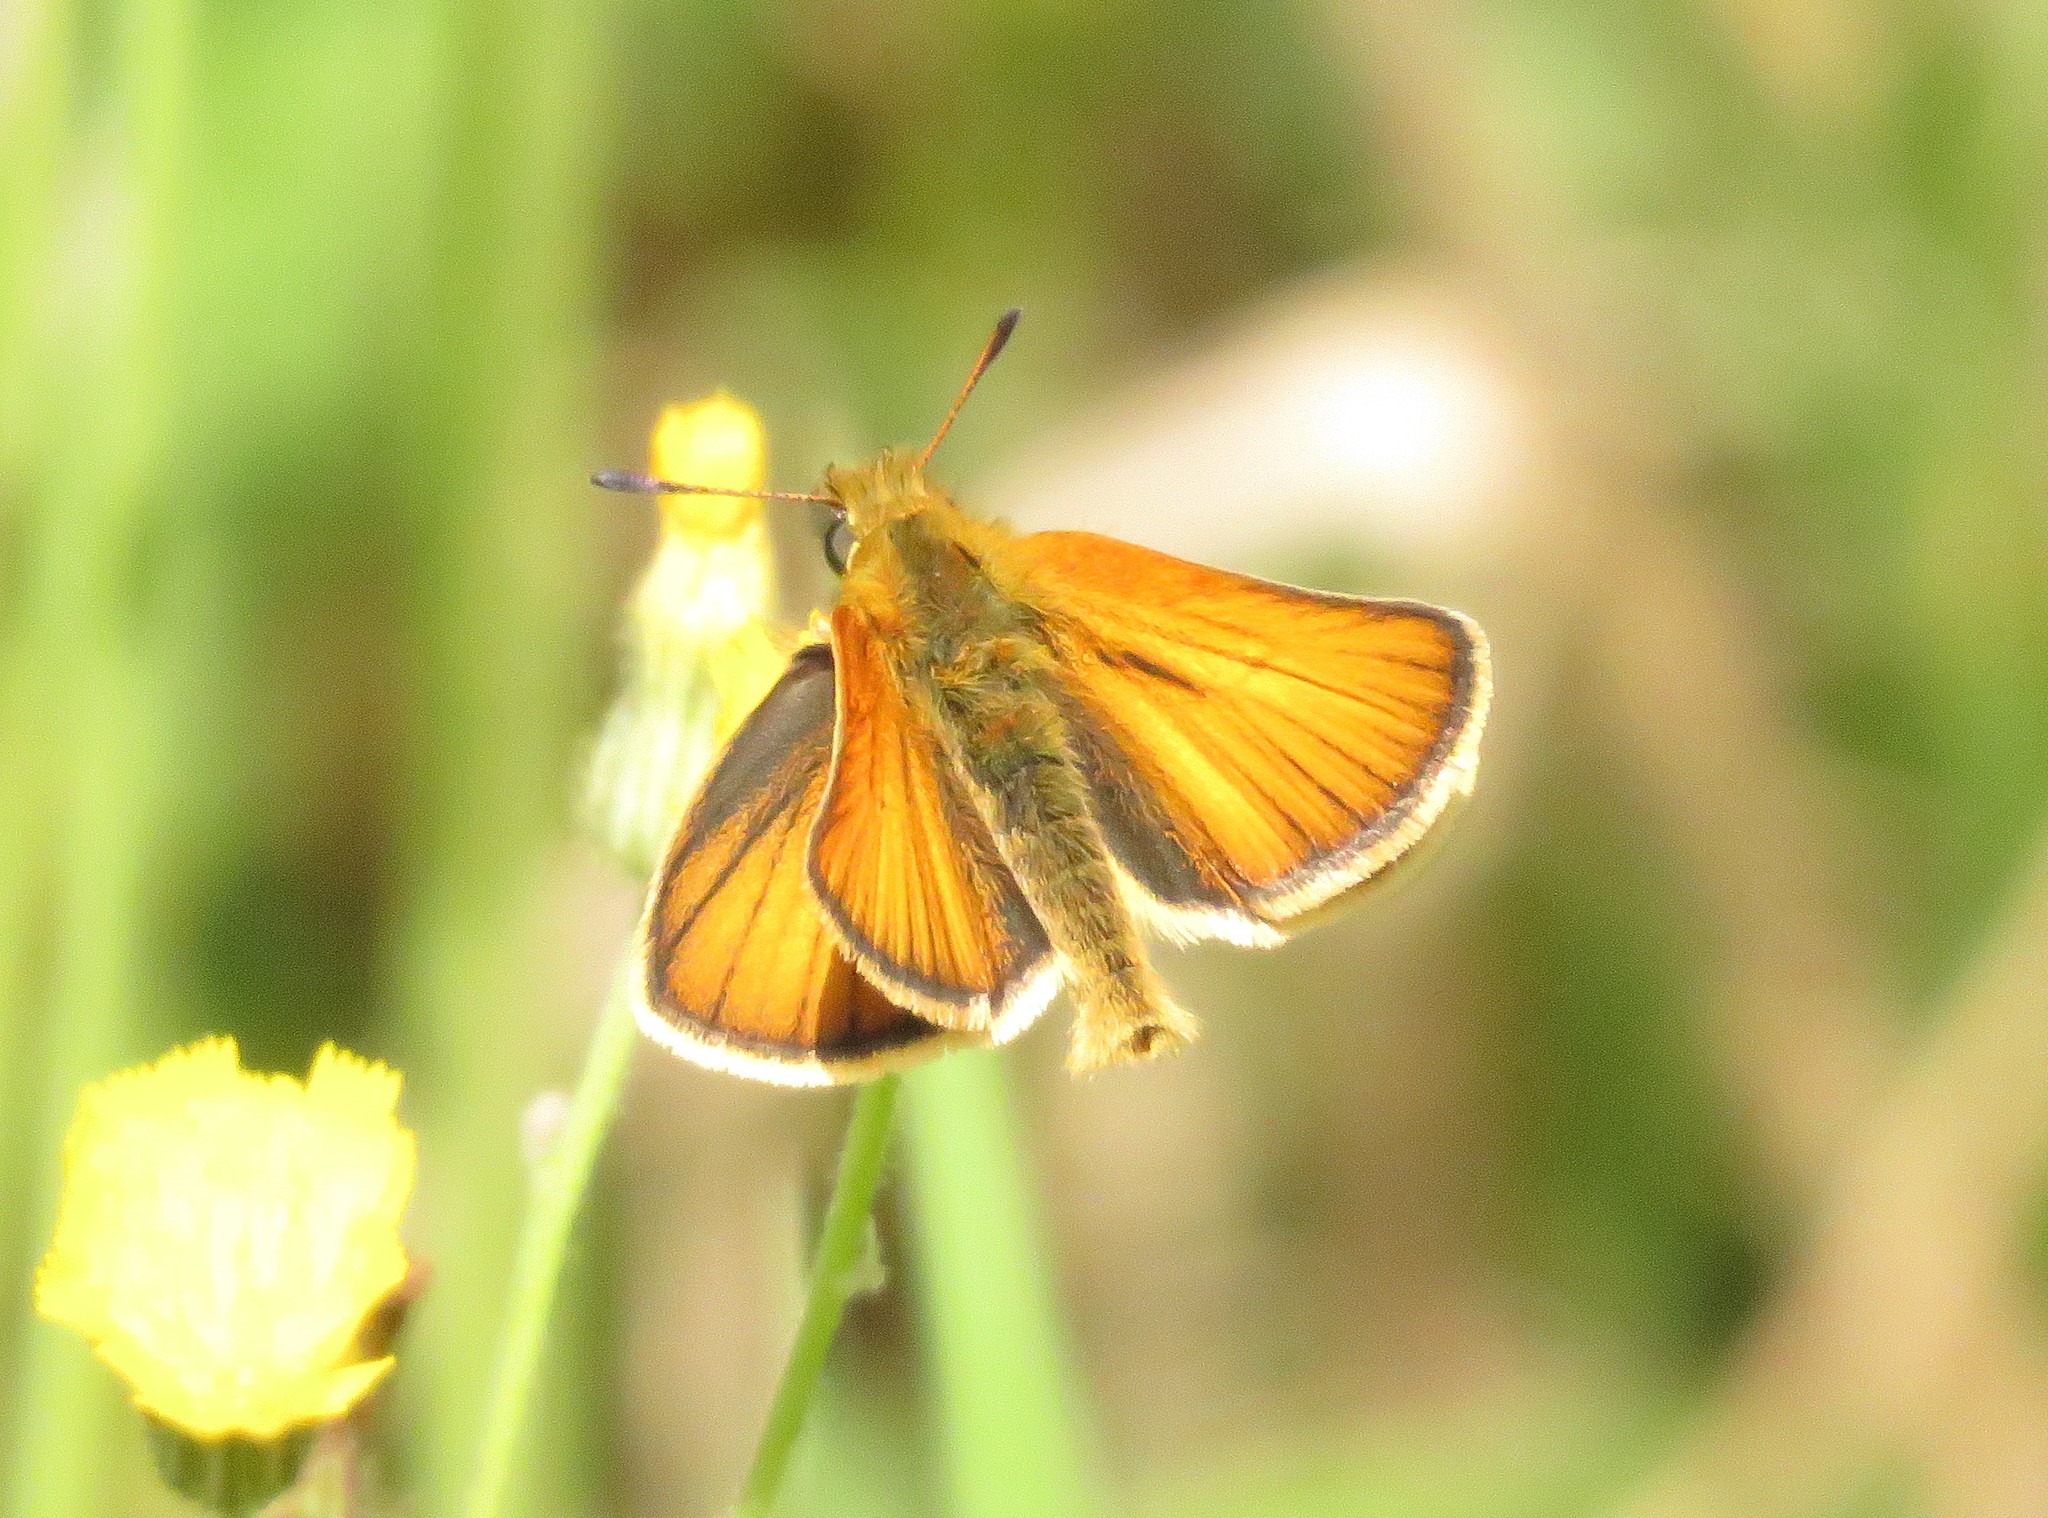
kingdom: Animalia
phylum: Arthropoda
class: Insecta
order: Lepidoptera
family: Hesperiidae
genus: Thymelicus
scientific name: Thymelicus lineola
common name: Essex skipper
